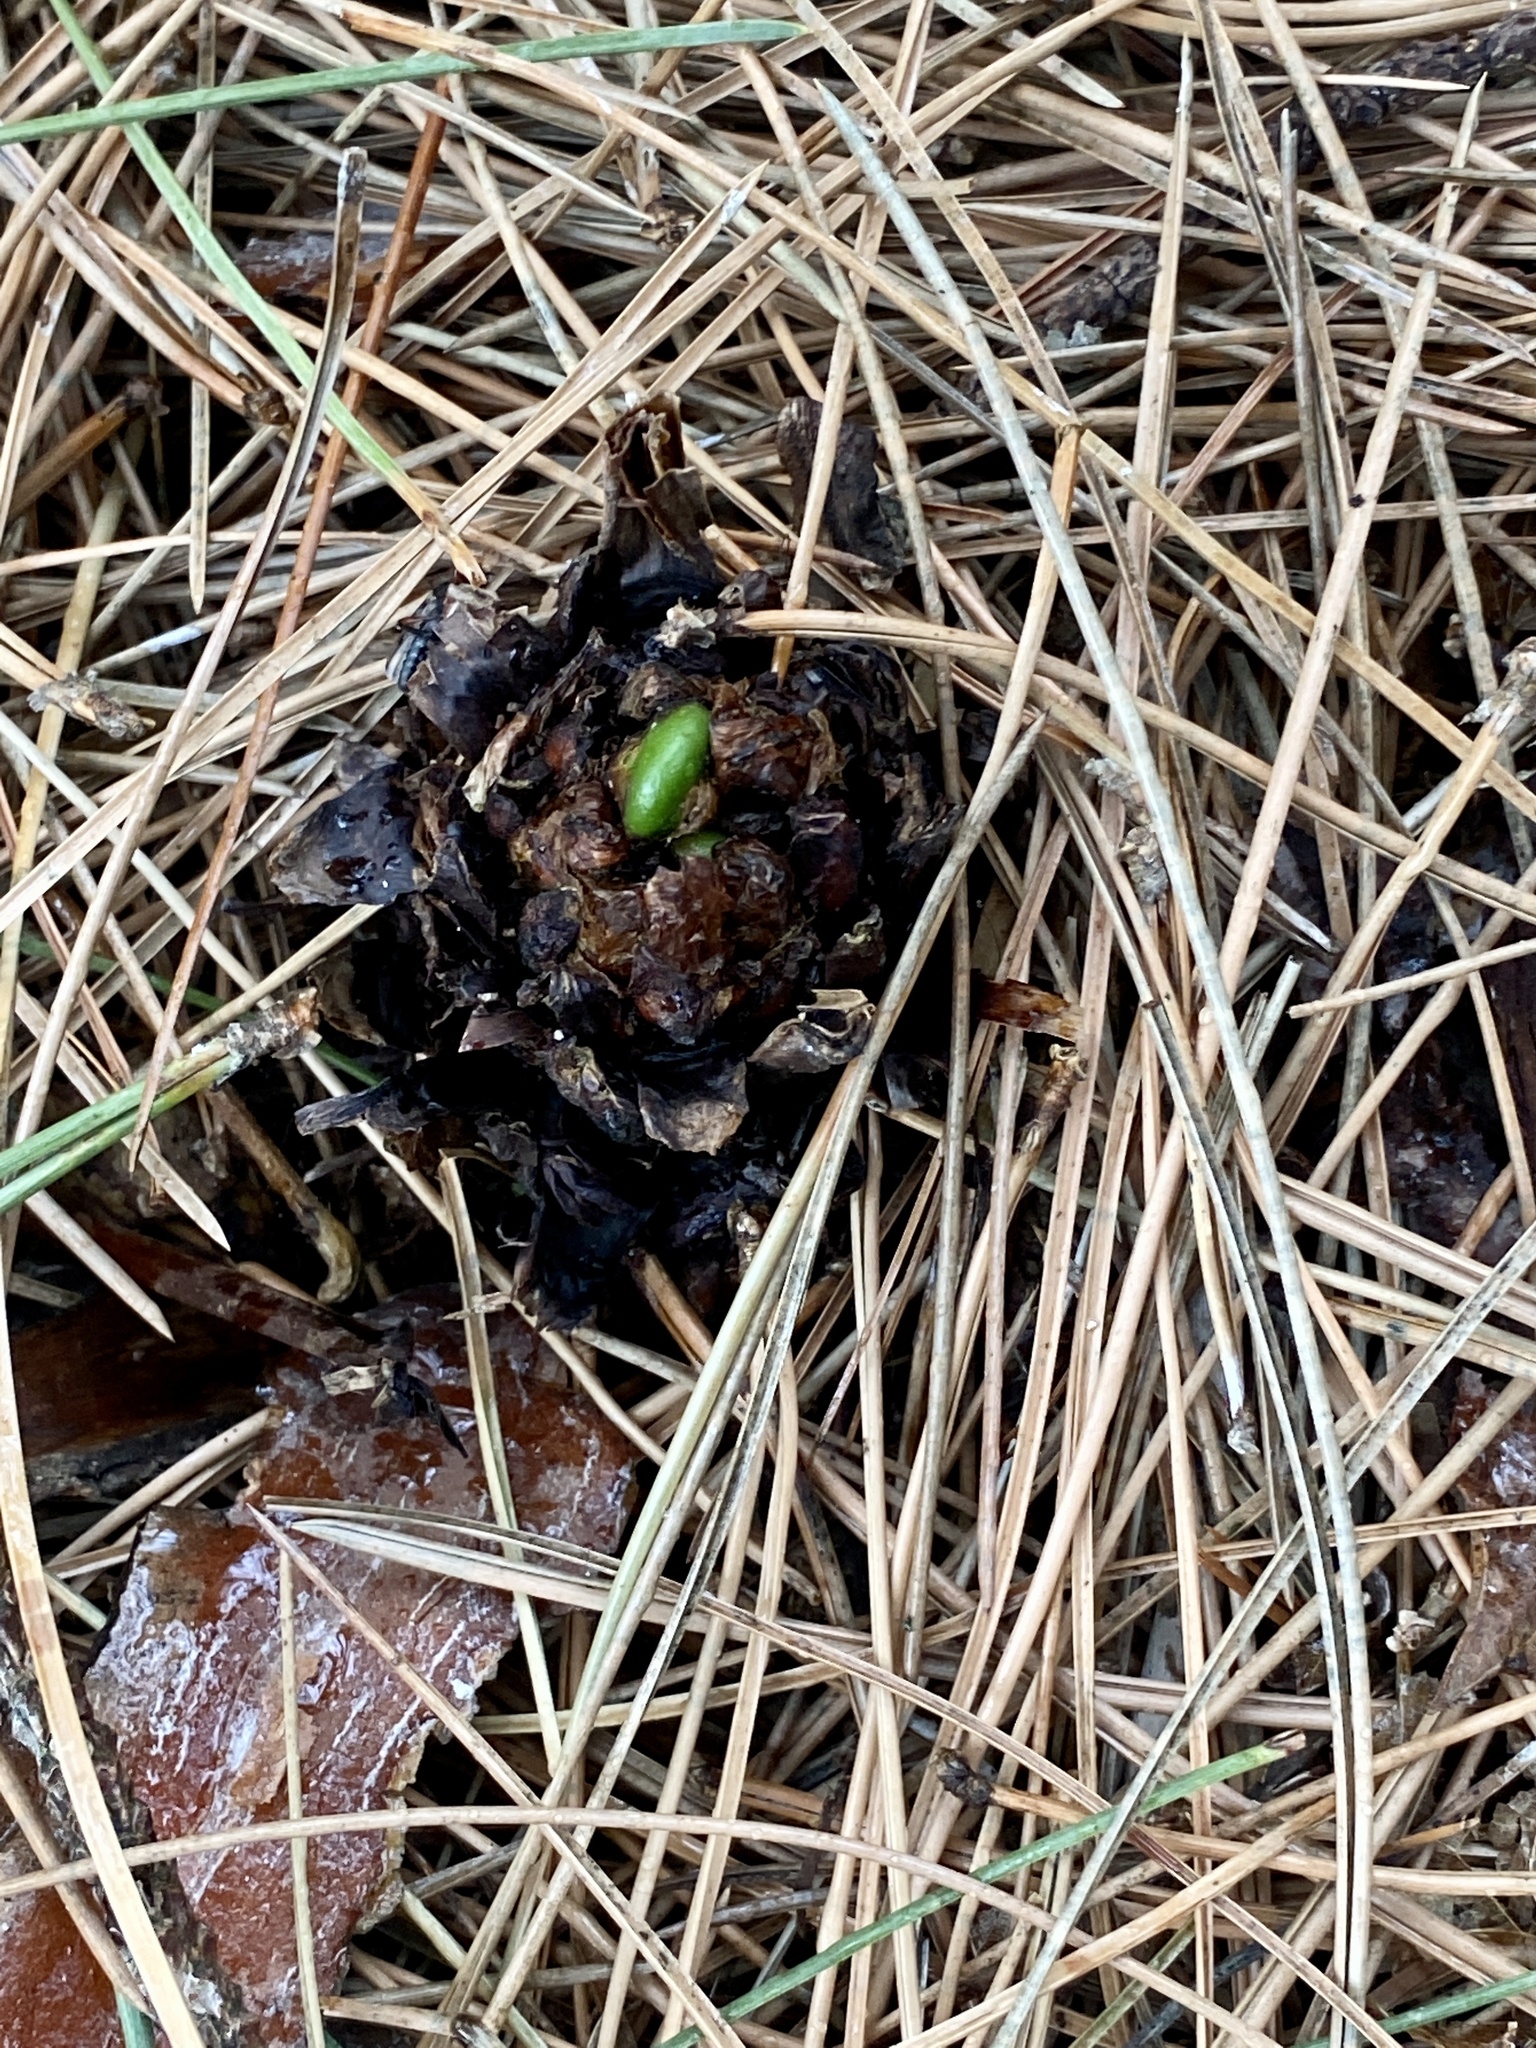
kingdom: Plantae
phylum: Tracheophyta
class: Polypodiopsida
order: Polypodiales
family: Onocleaceae
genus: Matteuccia
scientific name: Matteuccia struthiopteris
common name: Ostrich fern
